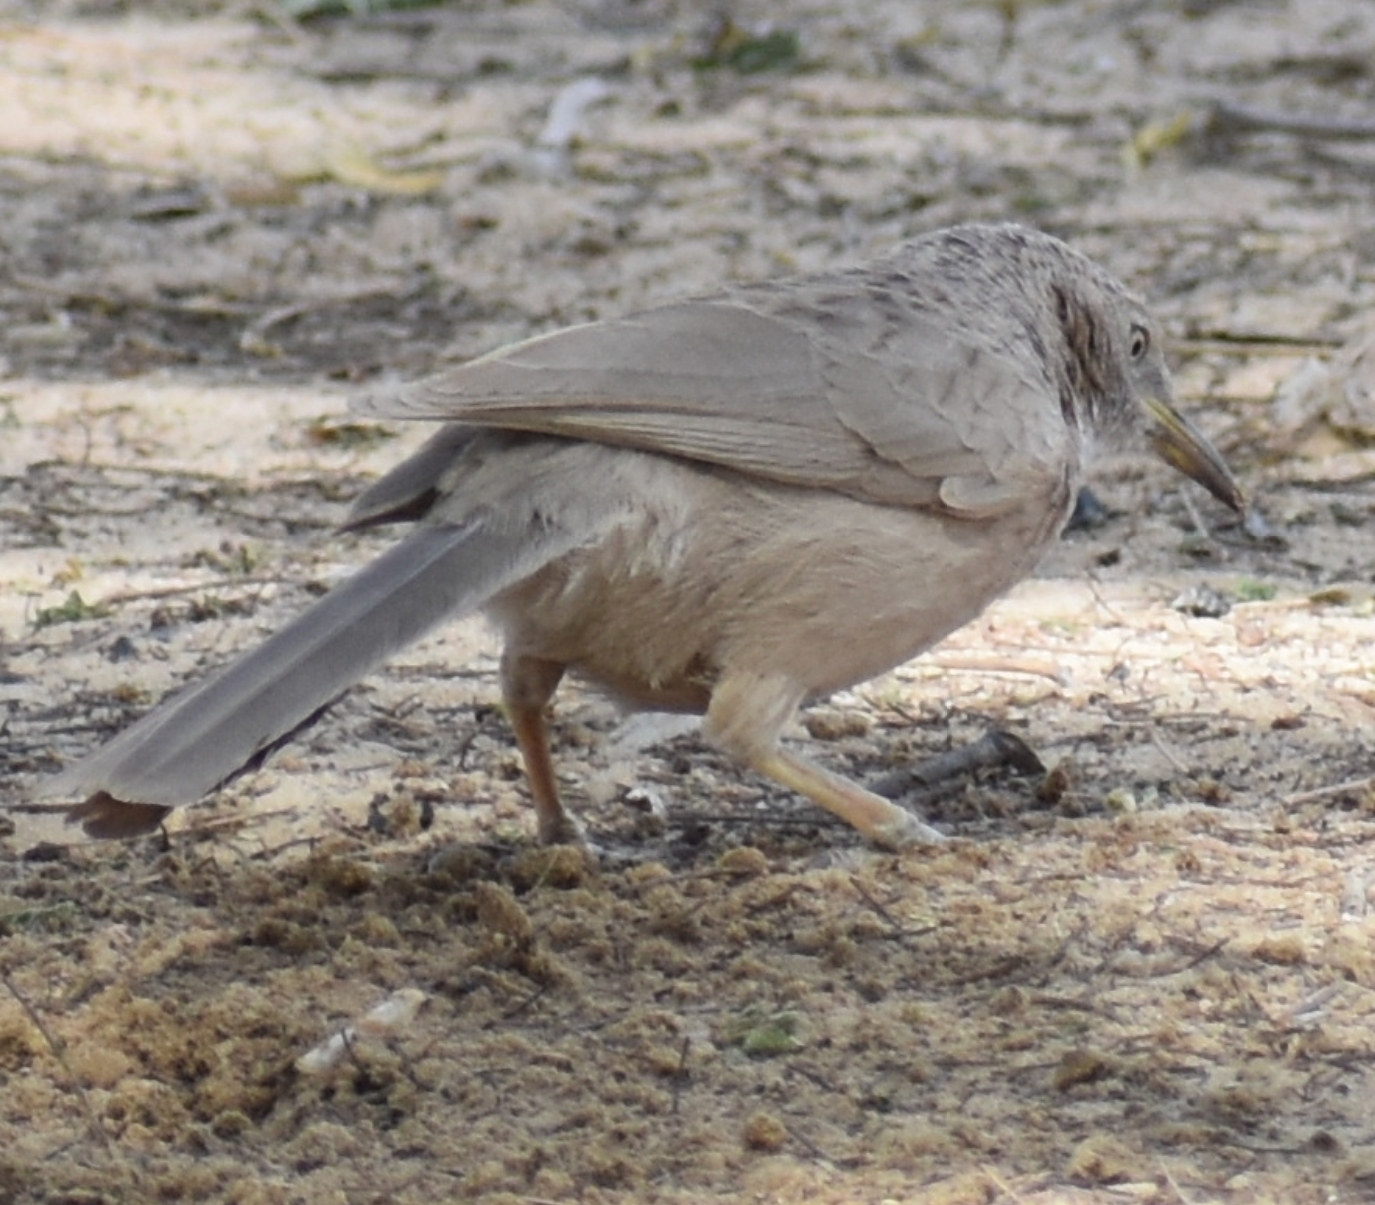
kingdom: Animalia
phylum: Chordata
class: Aves
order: Passeriformes
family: Leiothrichidae
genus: Turdoides
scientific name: Turdoides squamiceps
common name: Arabian babbler
